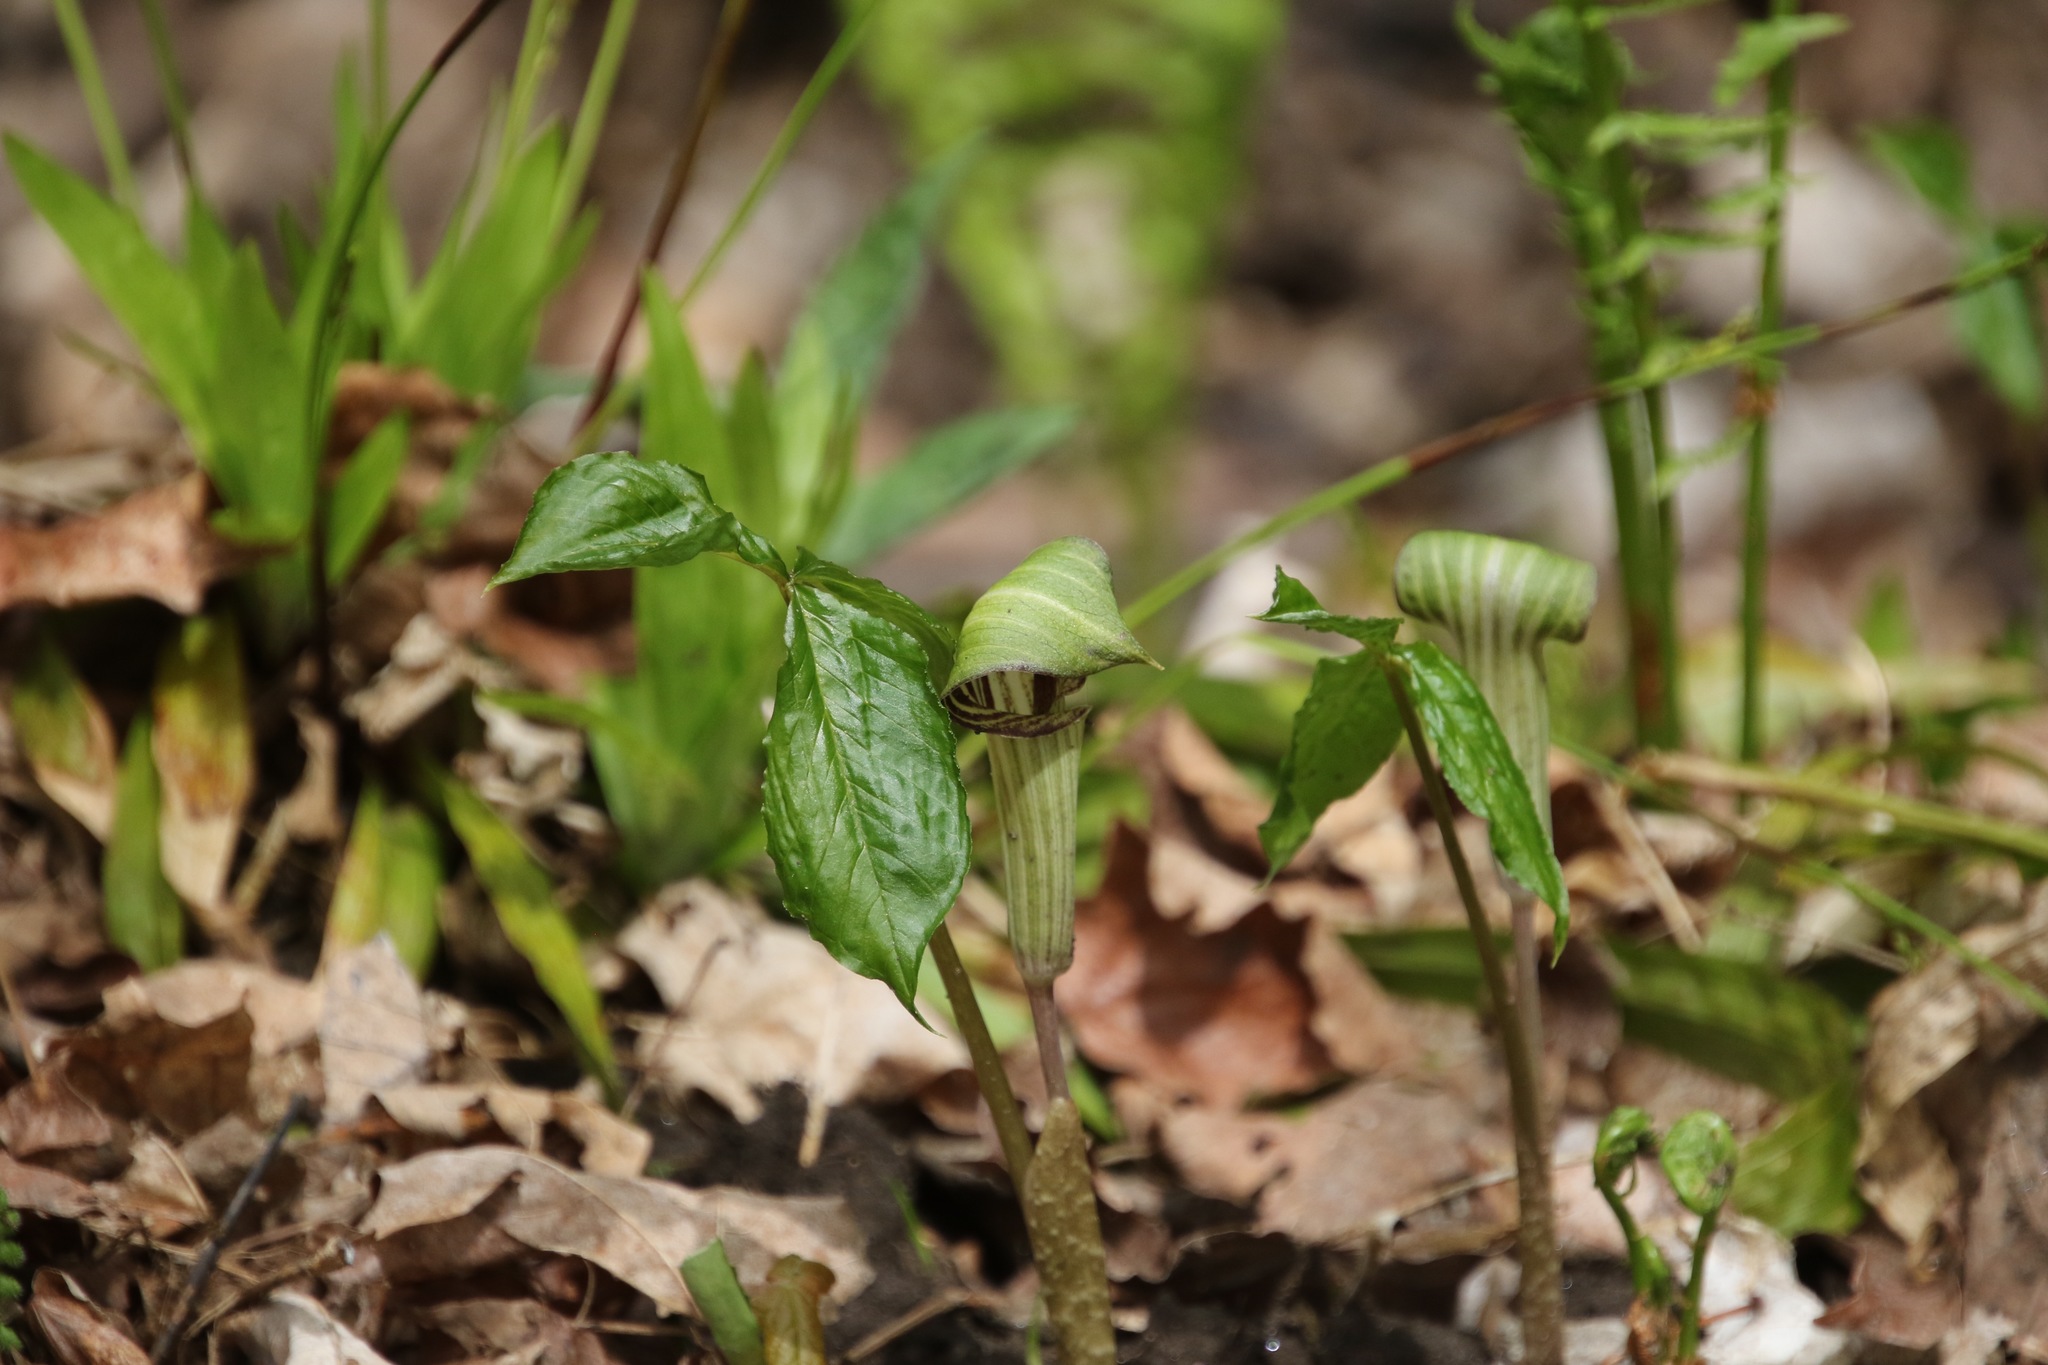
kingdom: Plantae
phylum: Tracheophyta
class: Liliopsida
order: Alismatales
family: Araceae
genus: Arisaema
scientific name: Arisaema triphyllum
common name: Jack-in-the-pulpit
